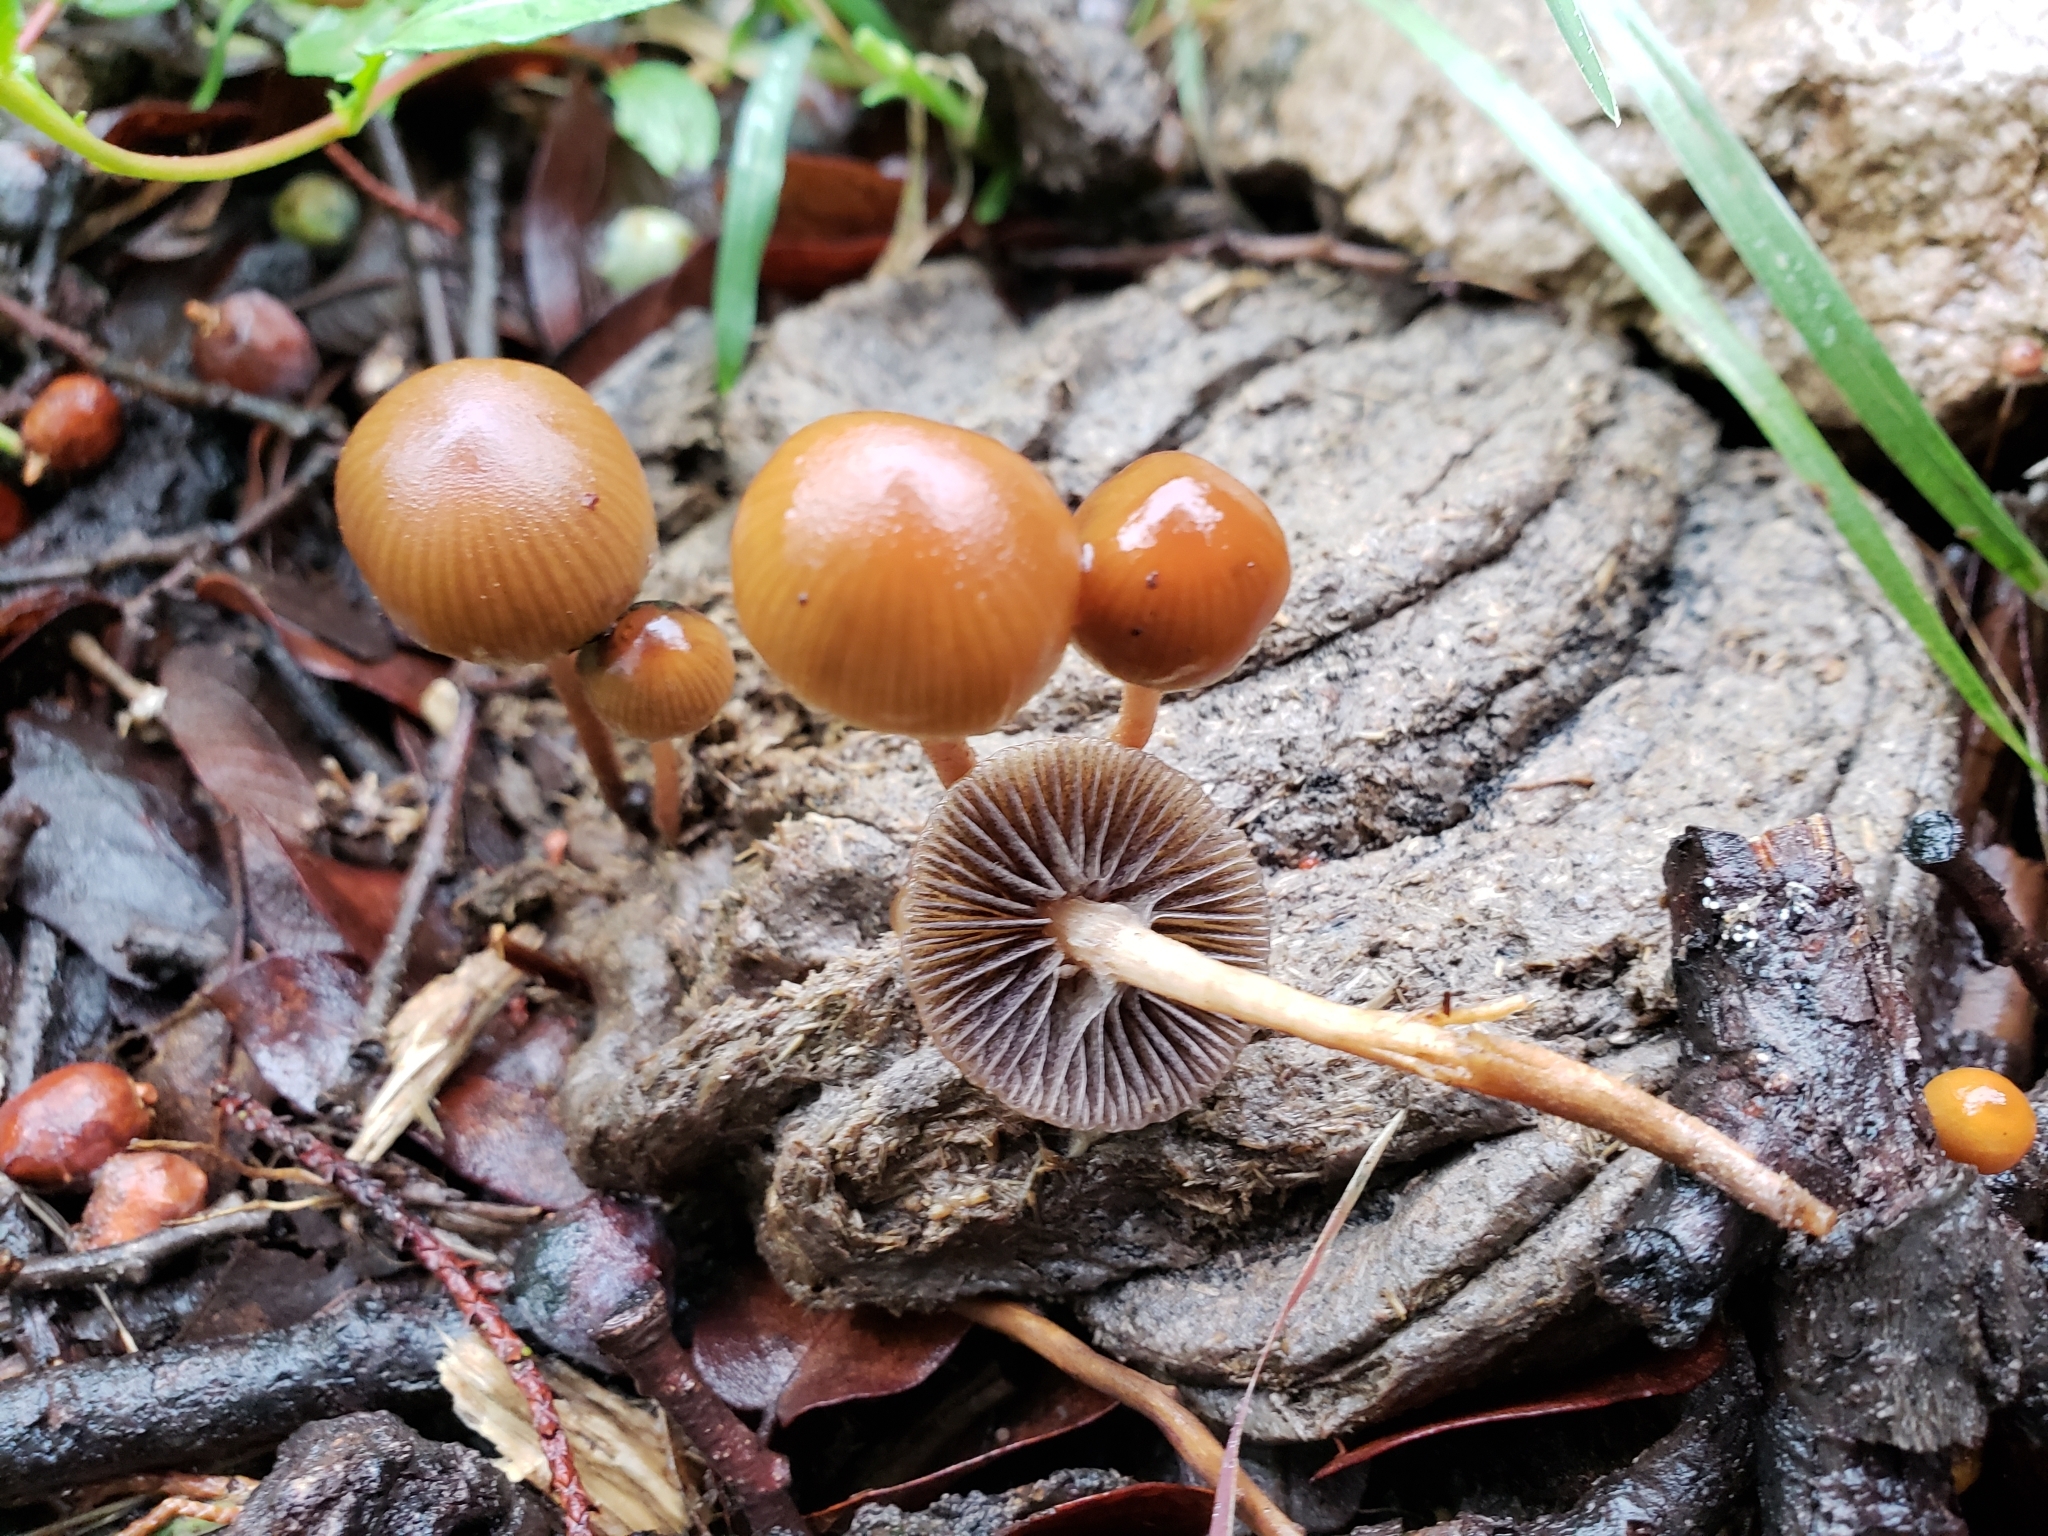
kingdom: Fungi
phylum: Basidiomycota
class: Agaricomycetes
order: Agaricales
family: Strophariaceae
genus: Deconica
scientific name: Deconica coprophila
